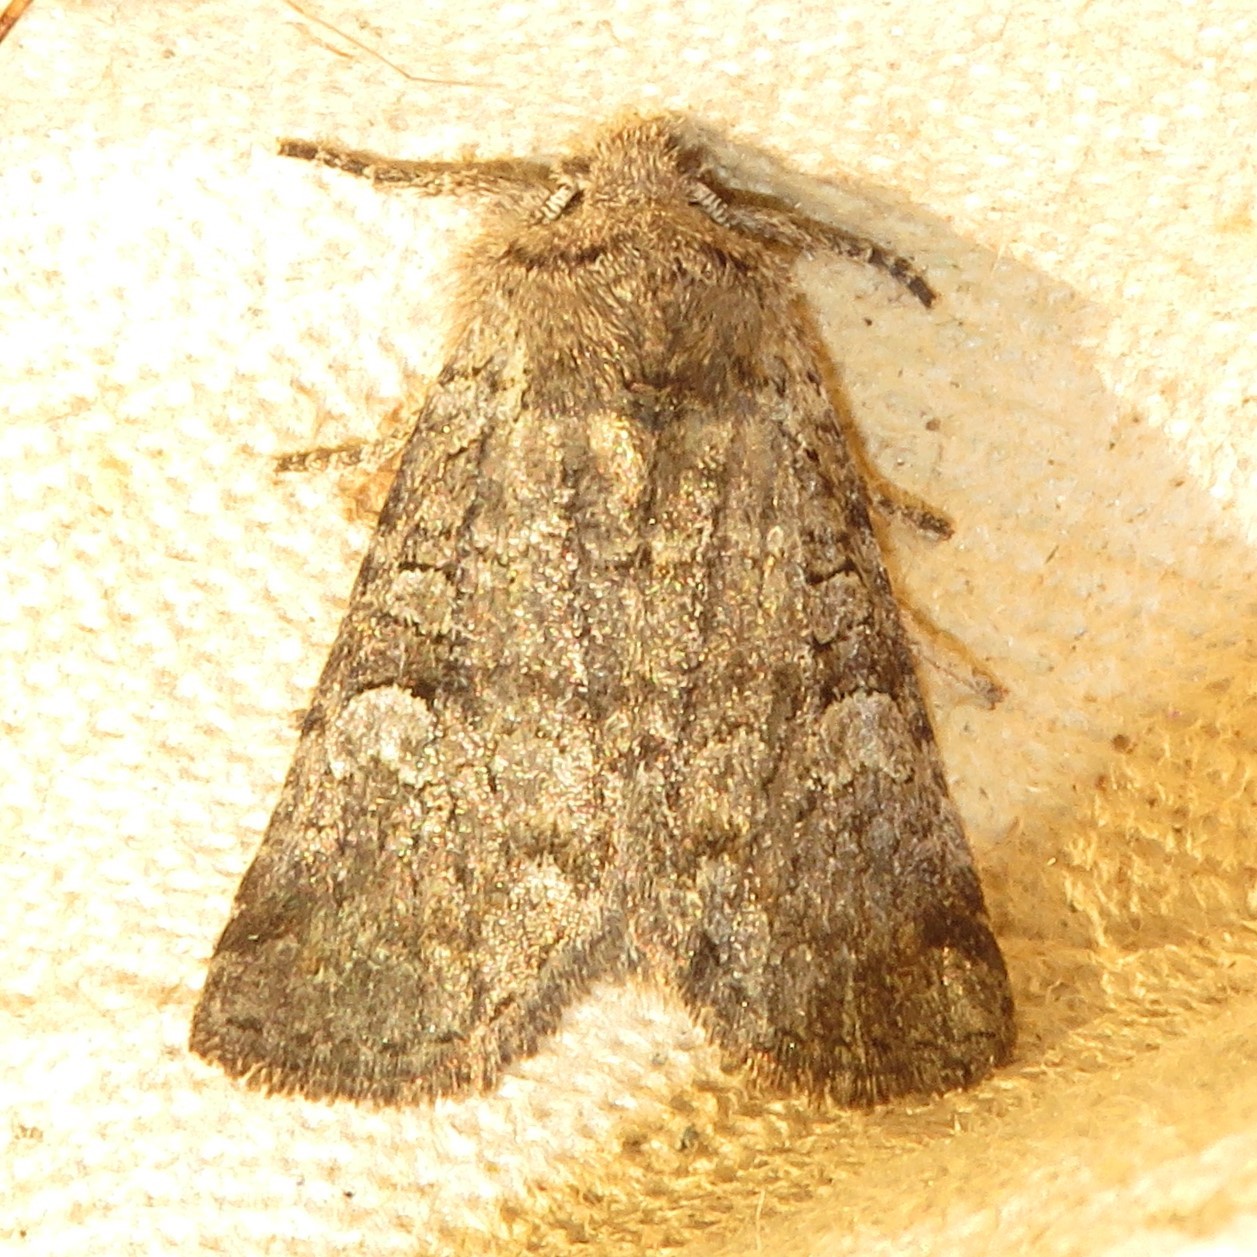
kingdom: Animalia
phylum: Arthropoda
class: Insecta
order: Lepidoptera
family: Noctuidae
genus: Brachylomia
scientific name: Brachylomia algens
